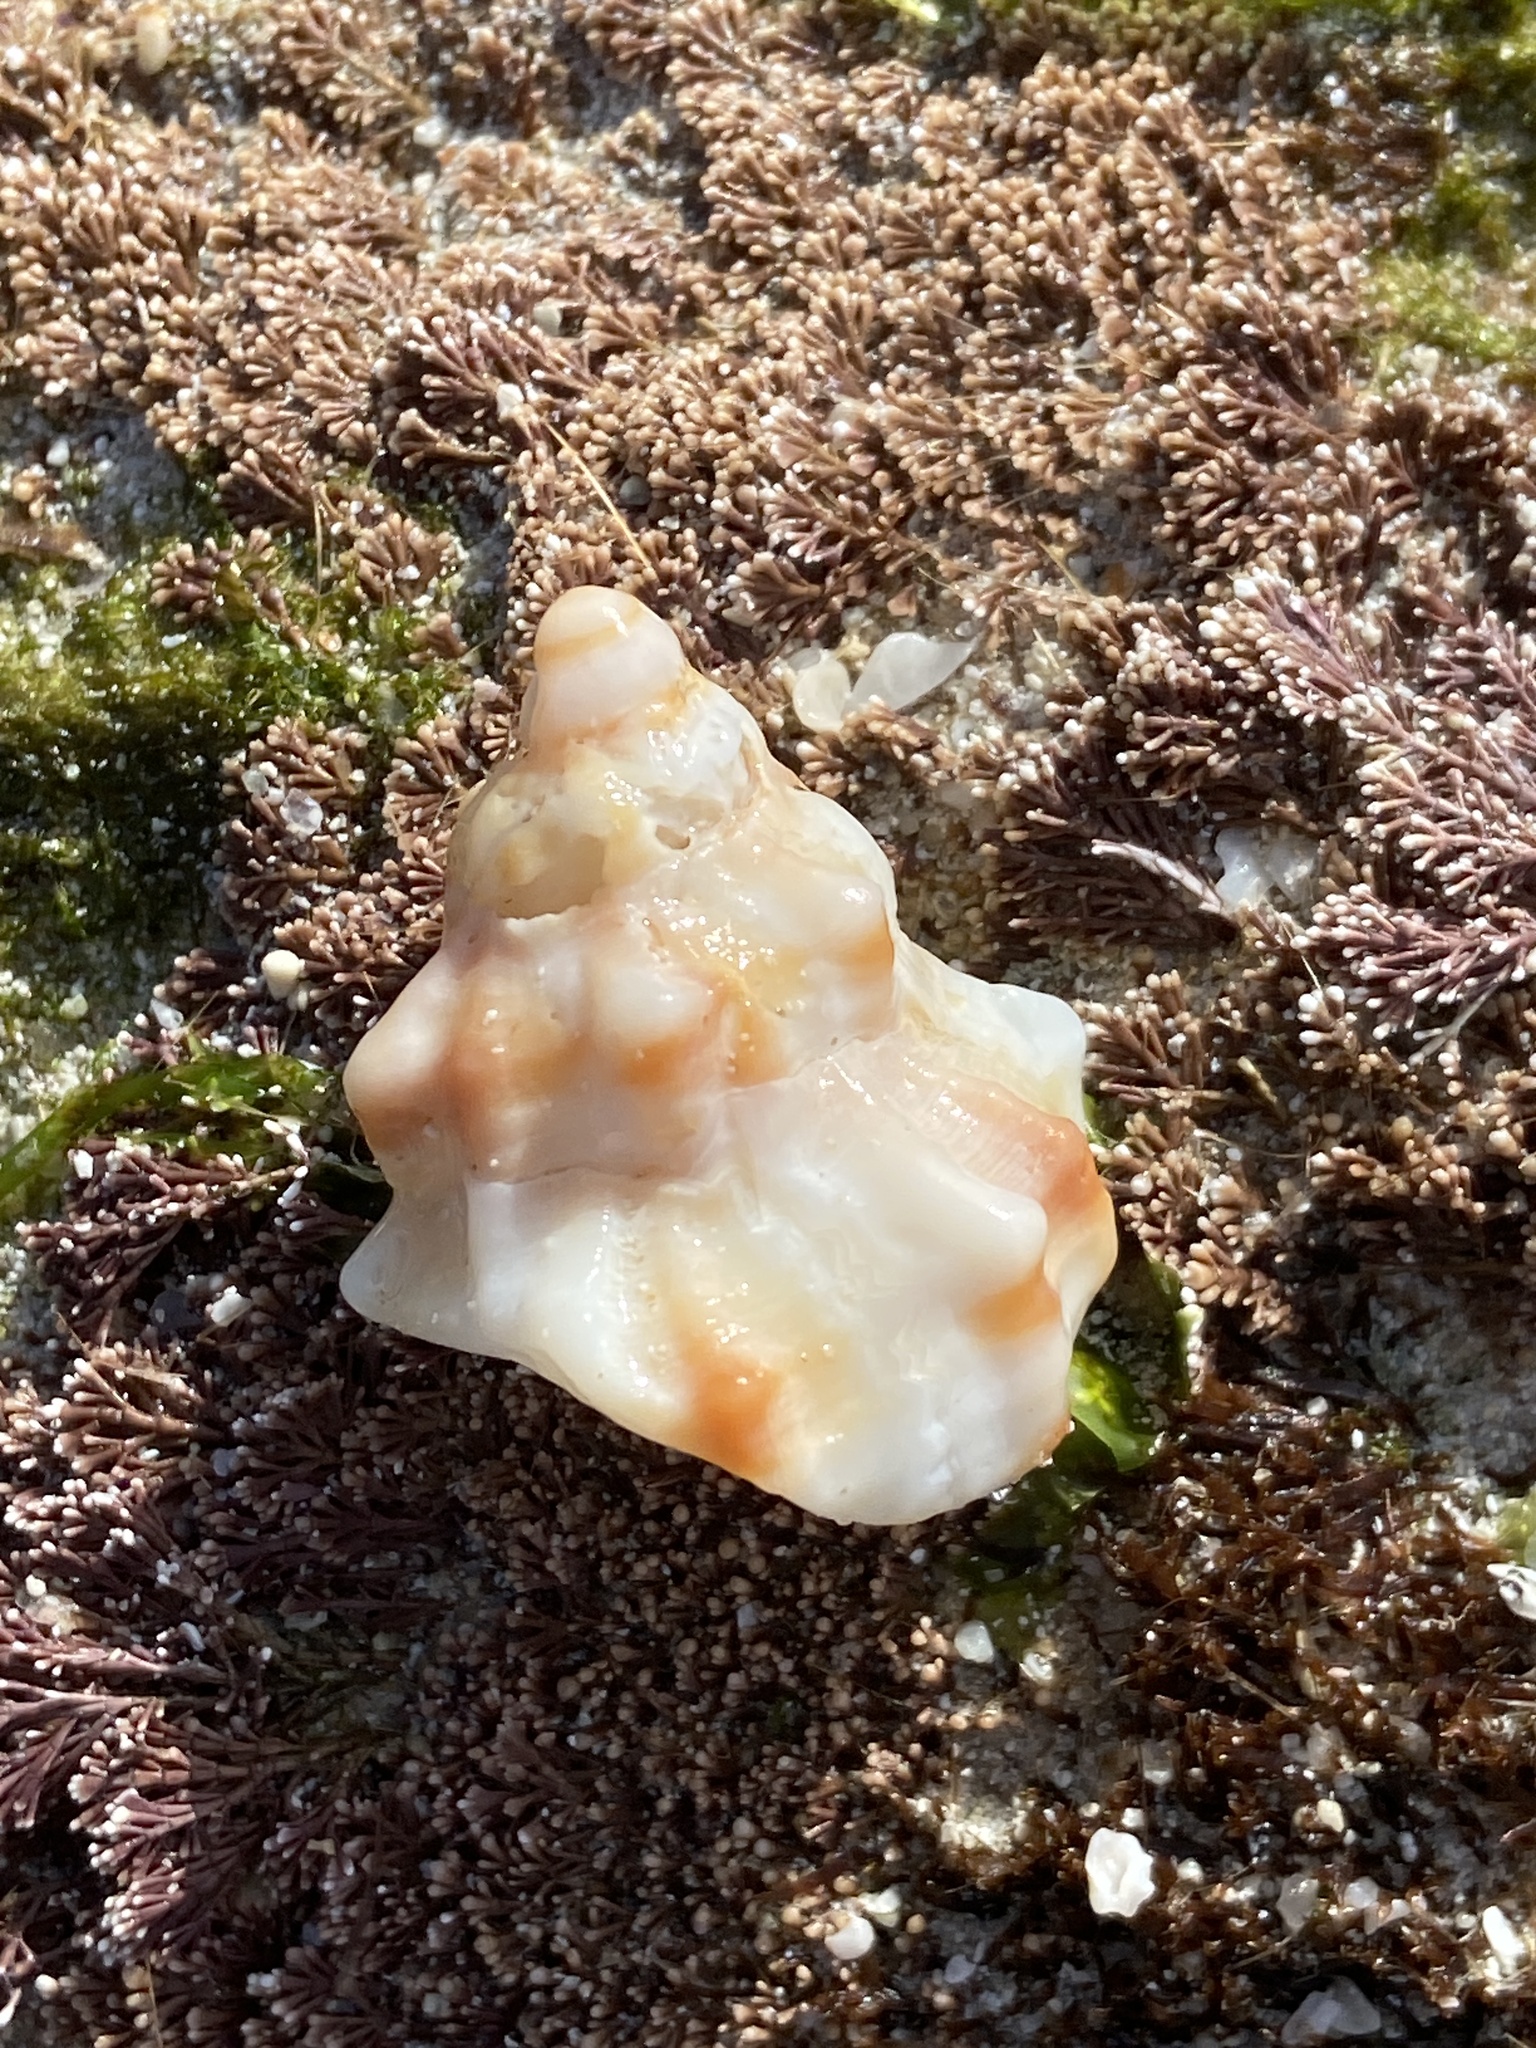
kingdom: Animalia
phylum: Mollusca
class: Gastropoda
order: Neogastropoda
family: Muricidae
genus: Hexaplex
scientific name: Hexaplex trunculus
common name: Banded dye-murex
